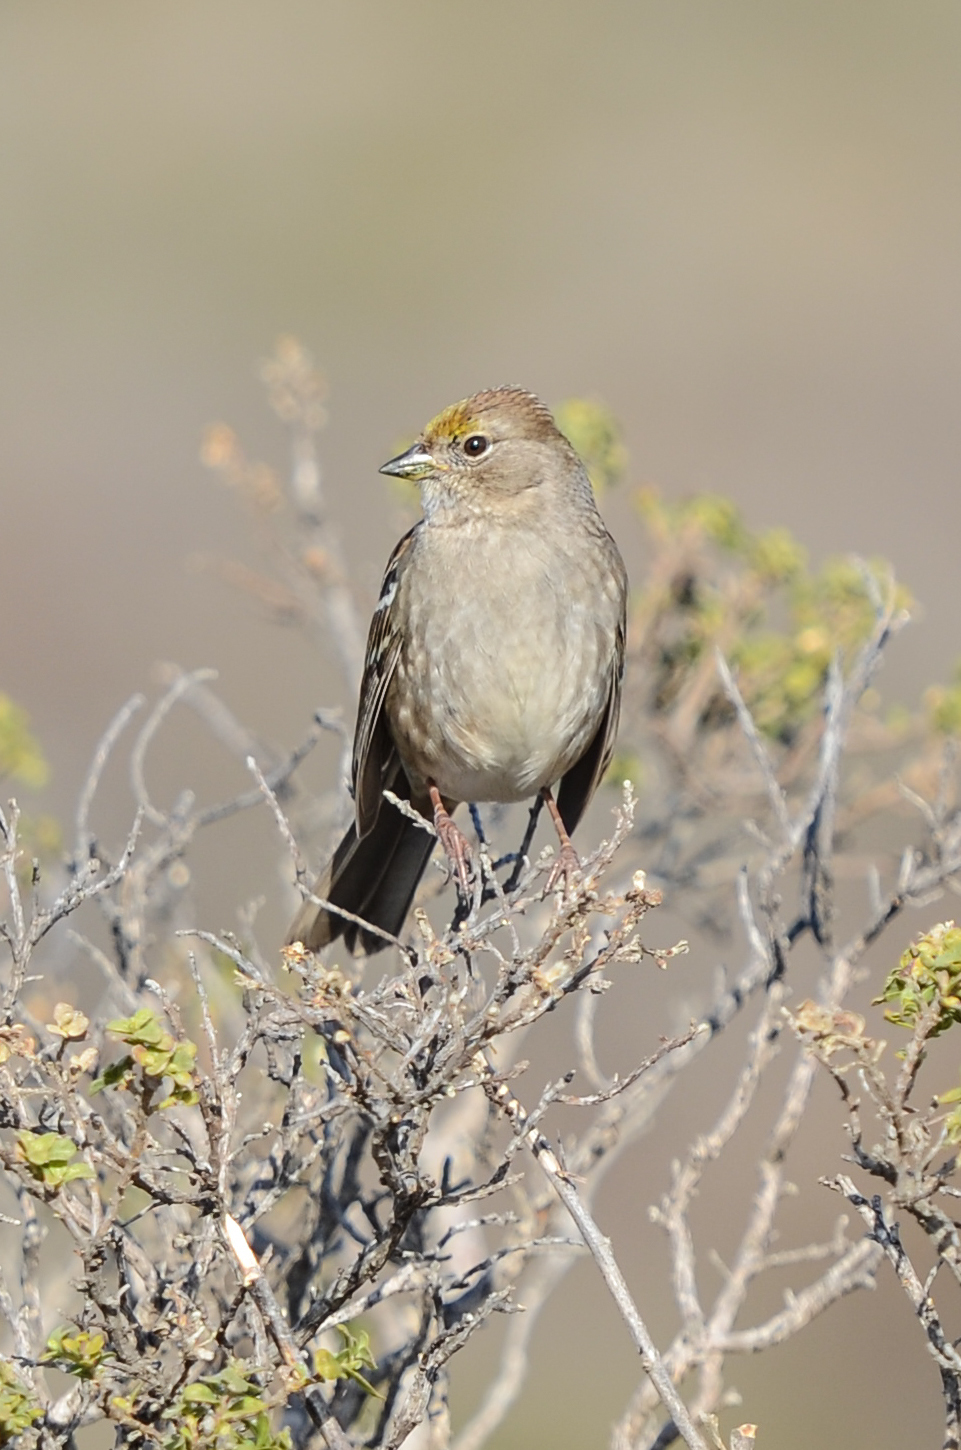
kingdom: Animalia
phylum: Chordata
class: Aves
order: Passeriformes
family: Passerellidae
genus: Zonotrichia
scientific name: Zonotrichia atricapilla
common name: Golden-crowned sparrow
